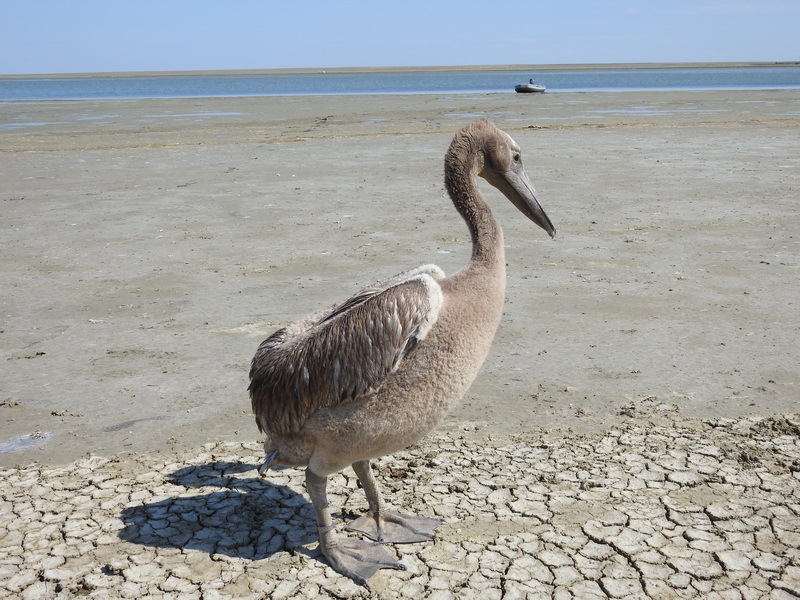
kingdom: Animalia
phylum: Chordata
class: Aves
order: Pelecaniformes
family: Pelecanidae
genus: Pelecanus
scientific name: Pelecanus onocrotalus
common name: Great white pelican
